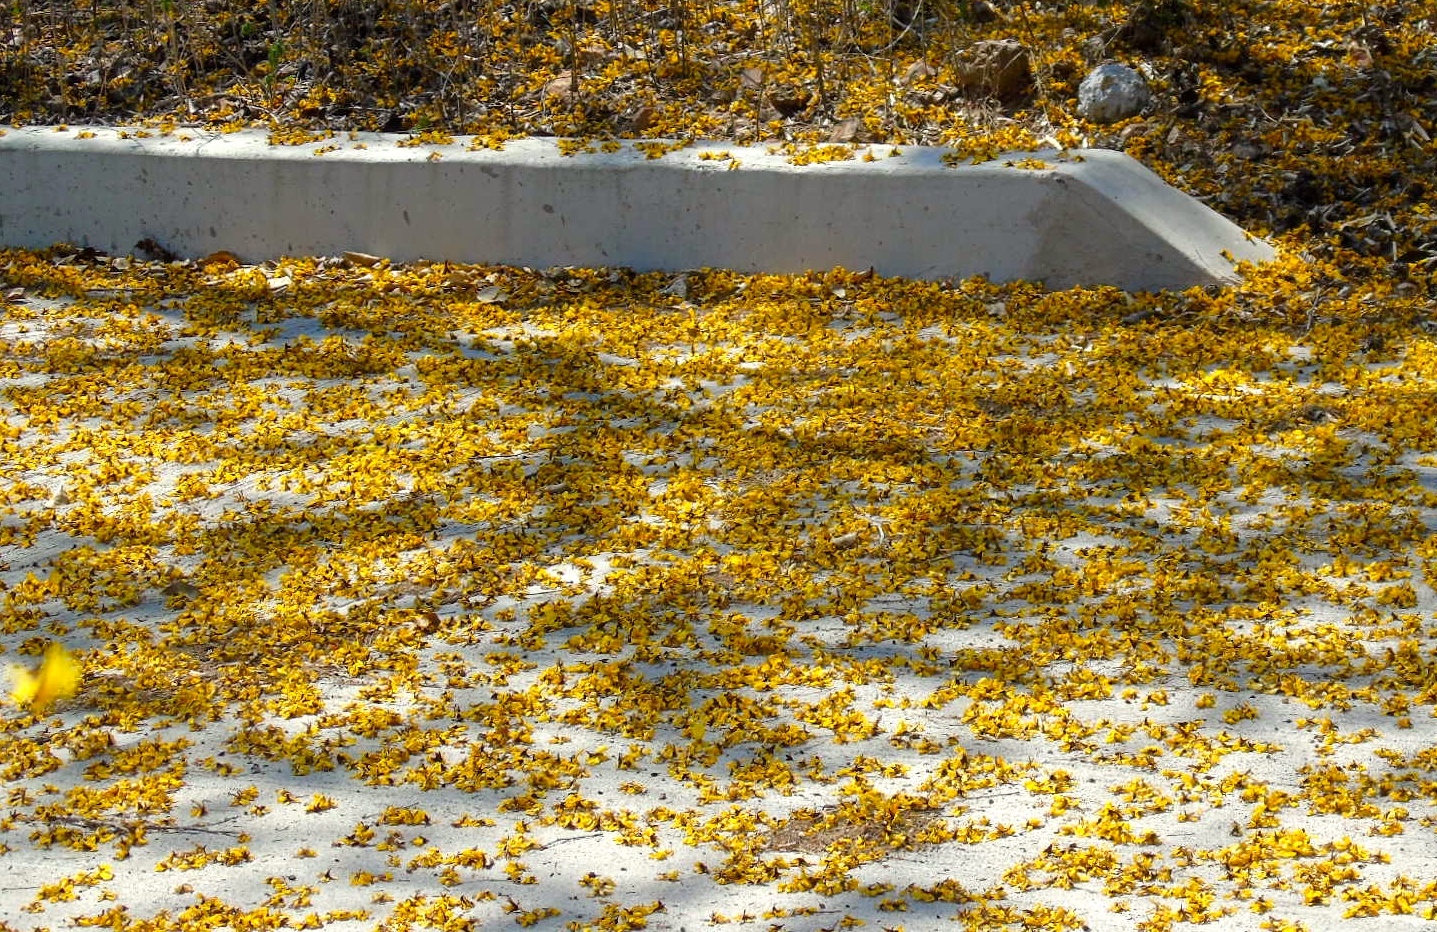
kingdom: Plantae
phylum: Tracheophyta
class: Magnoliopsida
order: Fabales
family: Fabaceae
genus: Cenostigma
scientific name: Cenostigma eriostachys
